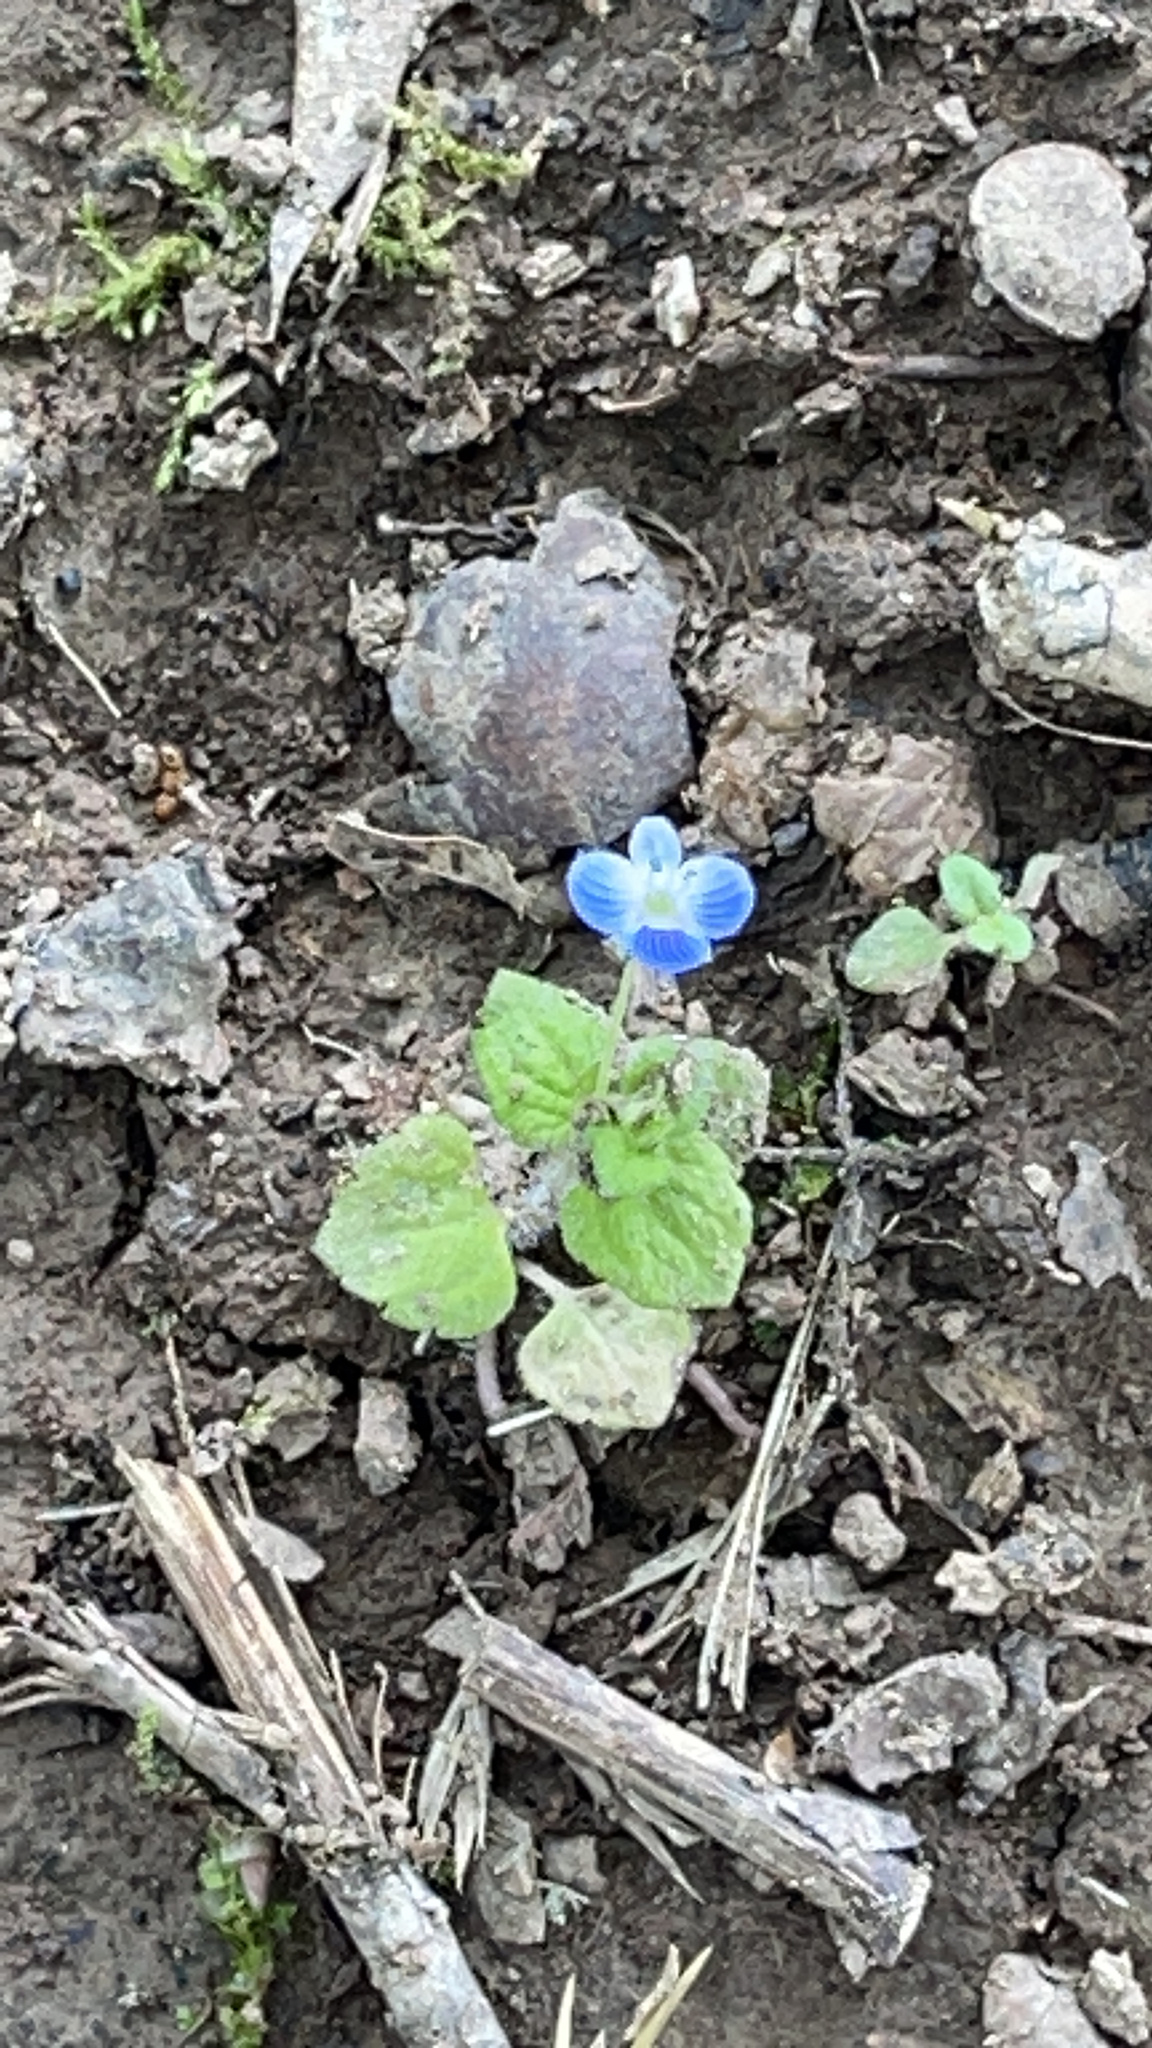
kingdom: Plantae
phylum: Tracheophyta
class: Magnoliopsida
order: Lamiales
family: Plantaginaceae
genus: Veronica
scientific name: Veronica persica
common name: Common field-speedwell
